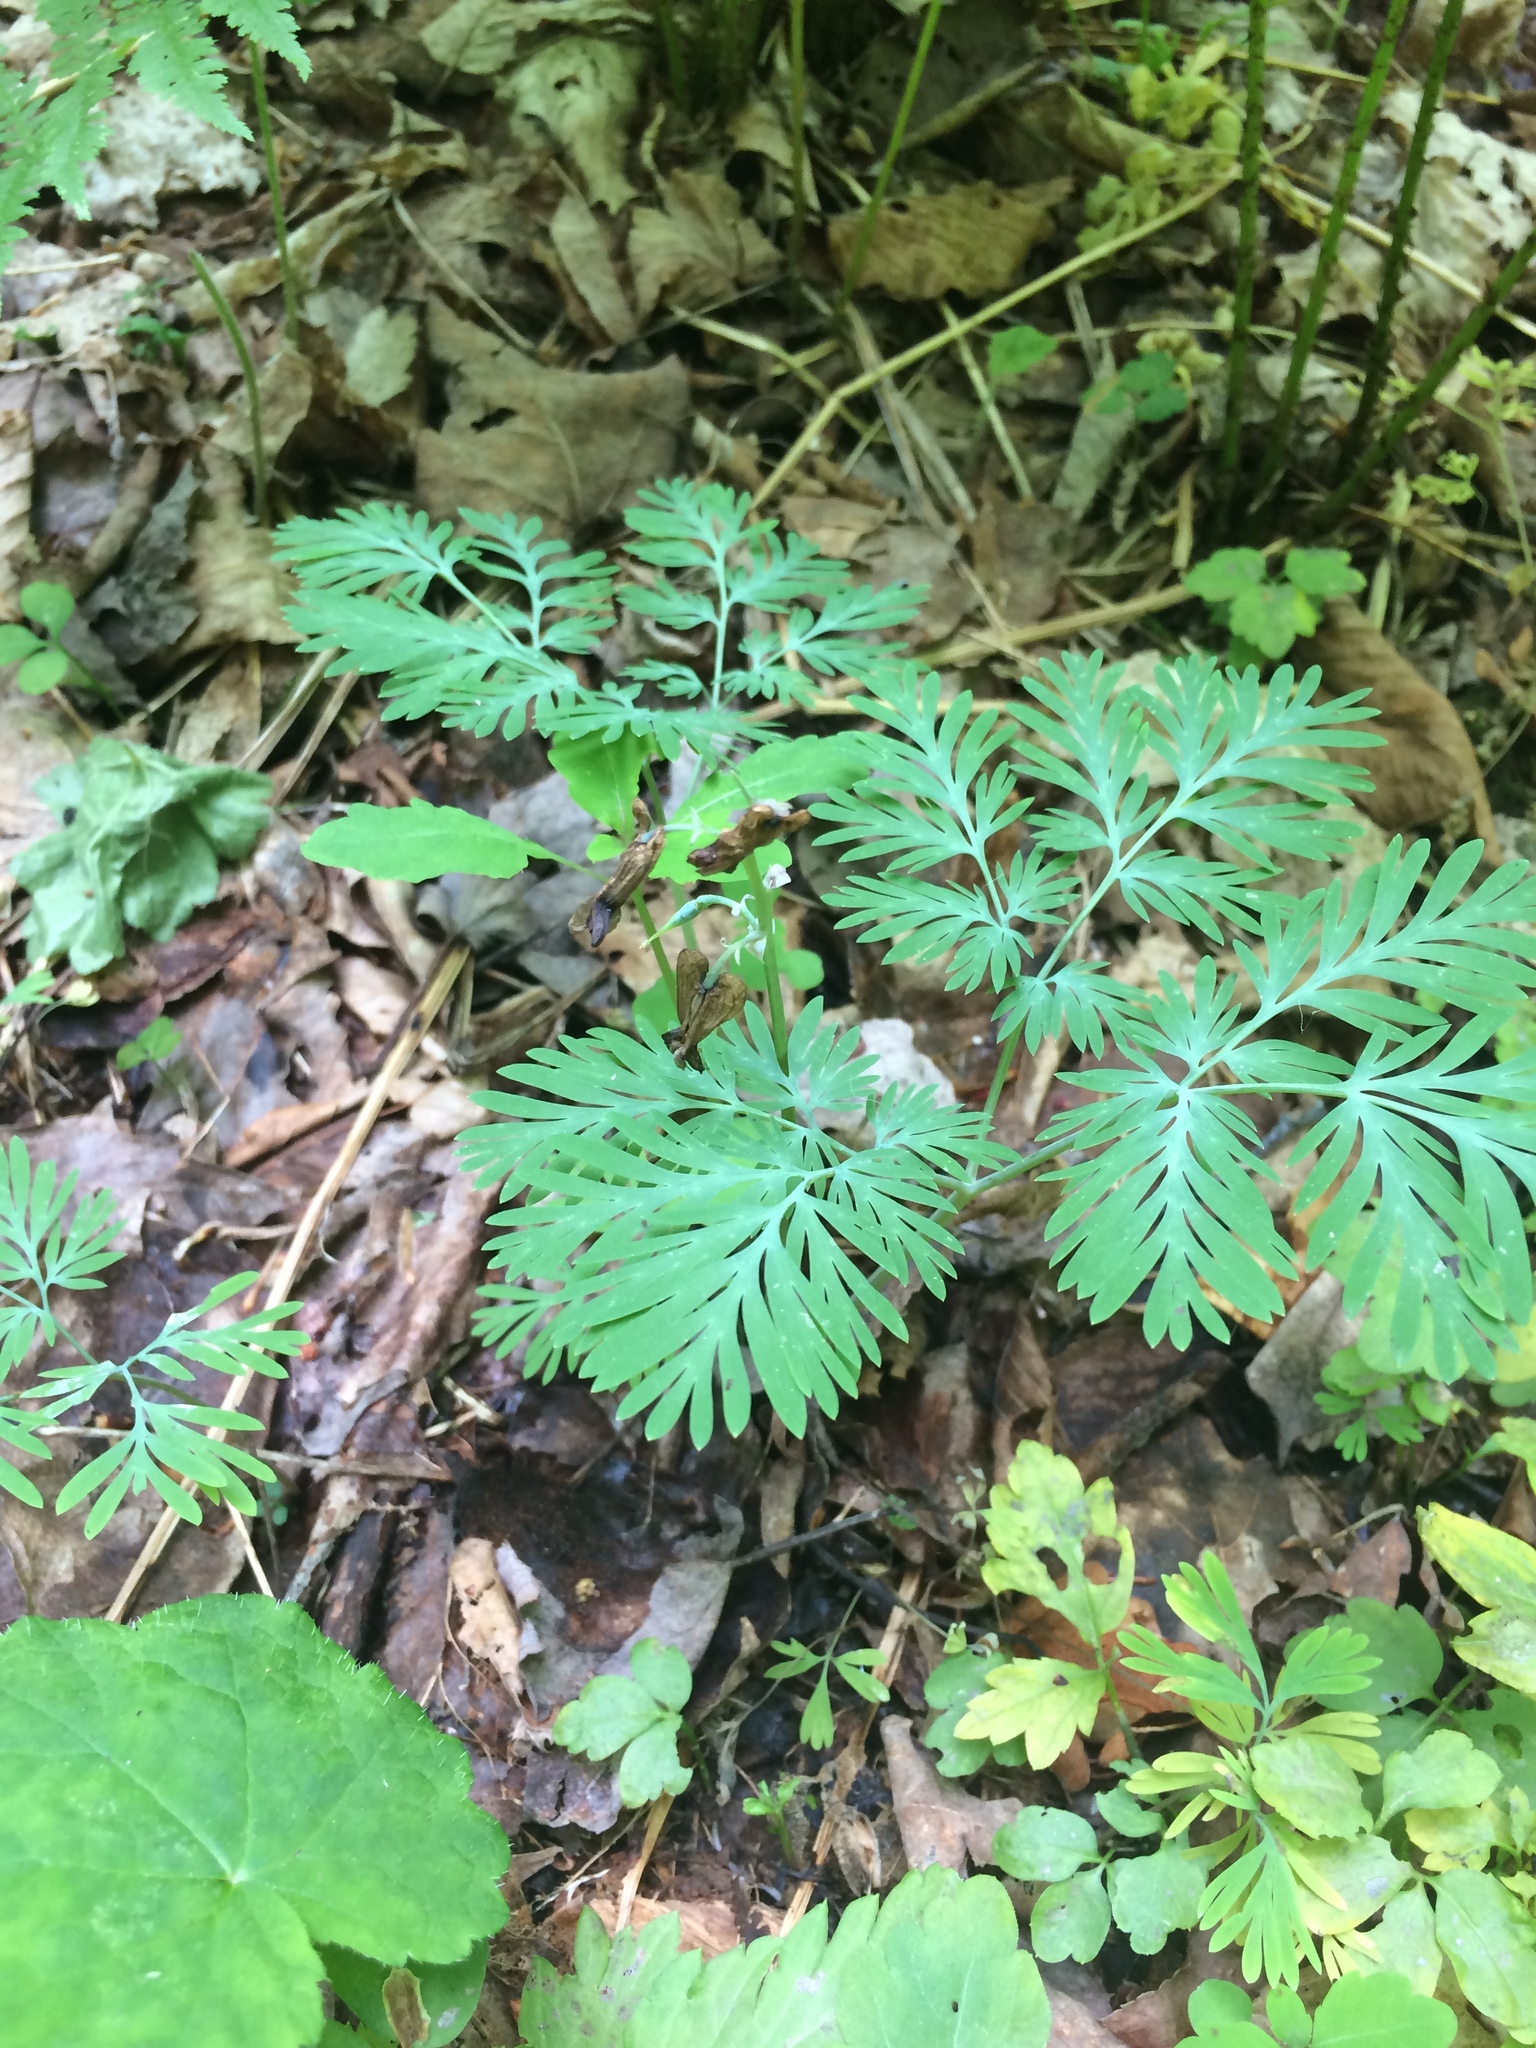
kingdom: Plantae
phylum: Tracheophyta
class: Magnoliopsida
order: Ranunculales
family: Papaveraceae
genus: Dicentra
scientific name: Dicentra canadensis
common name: Squirrel-corn
